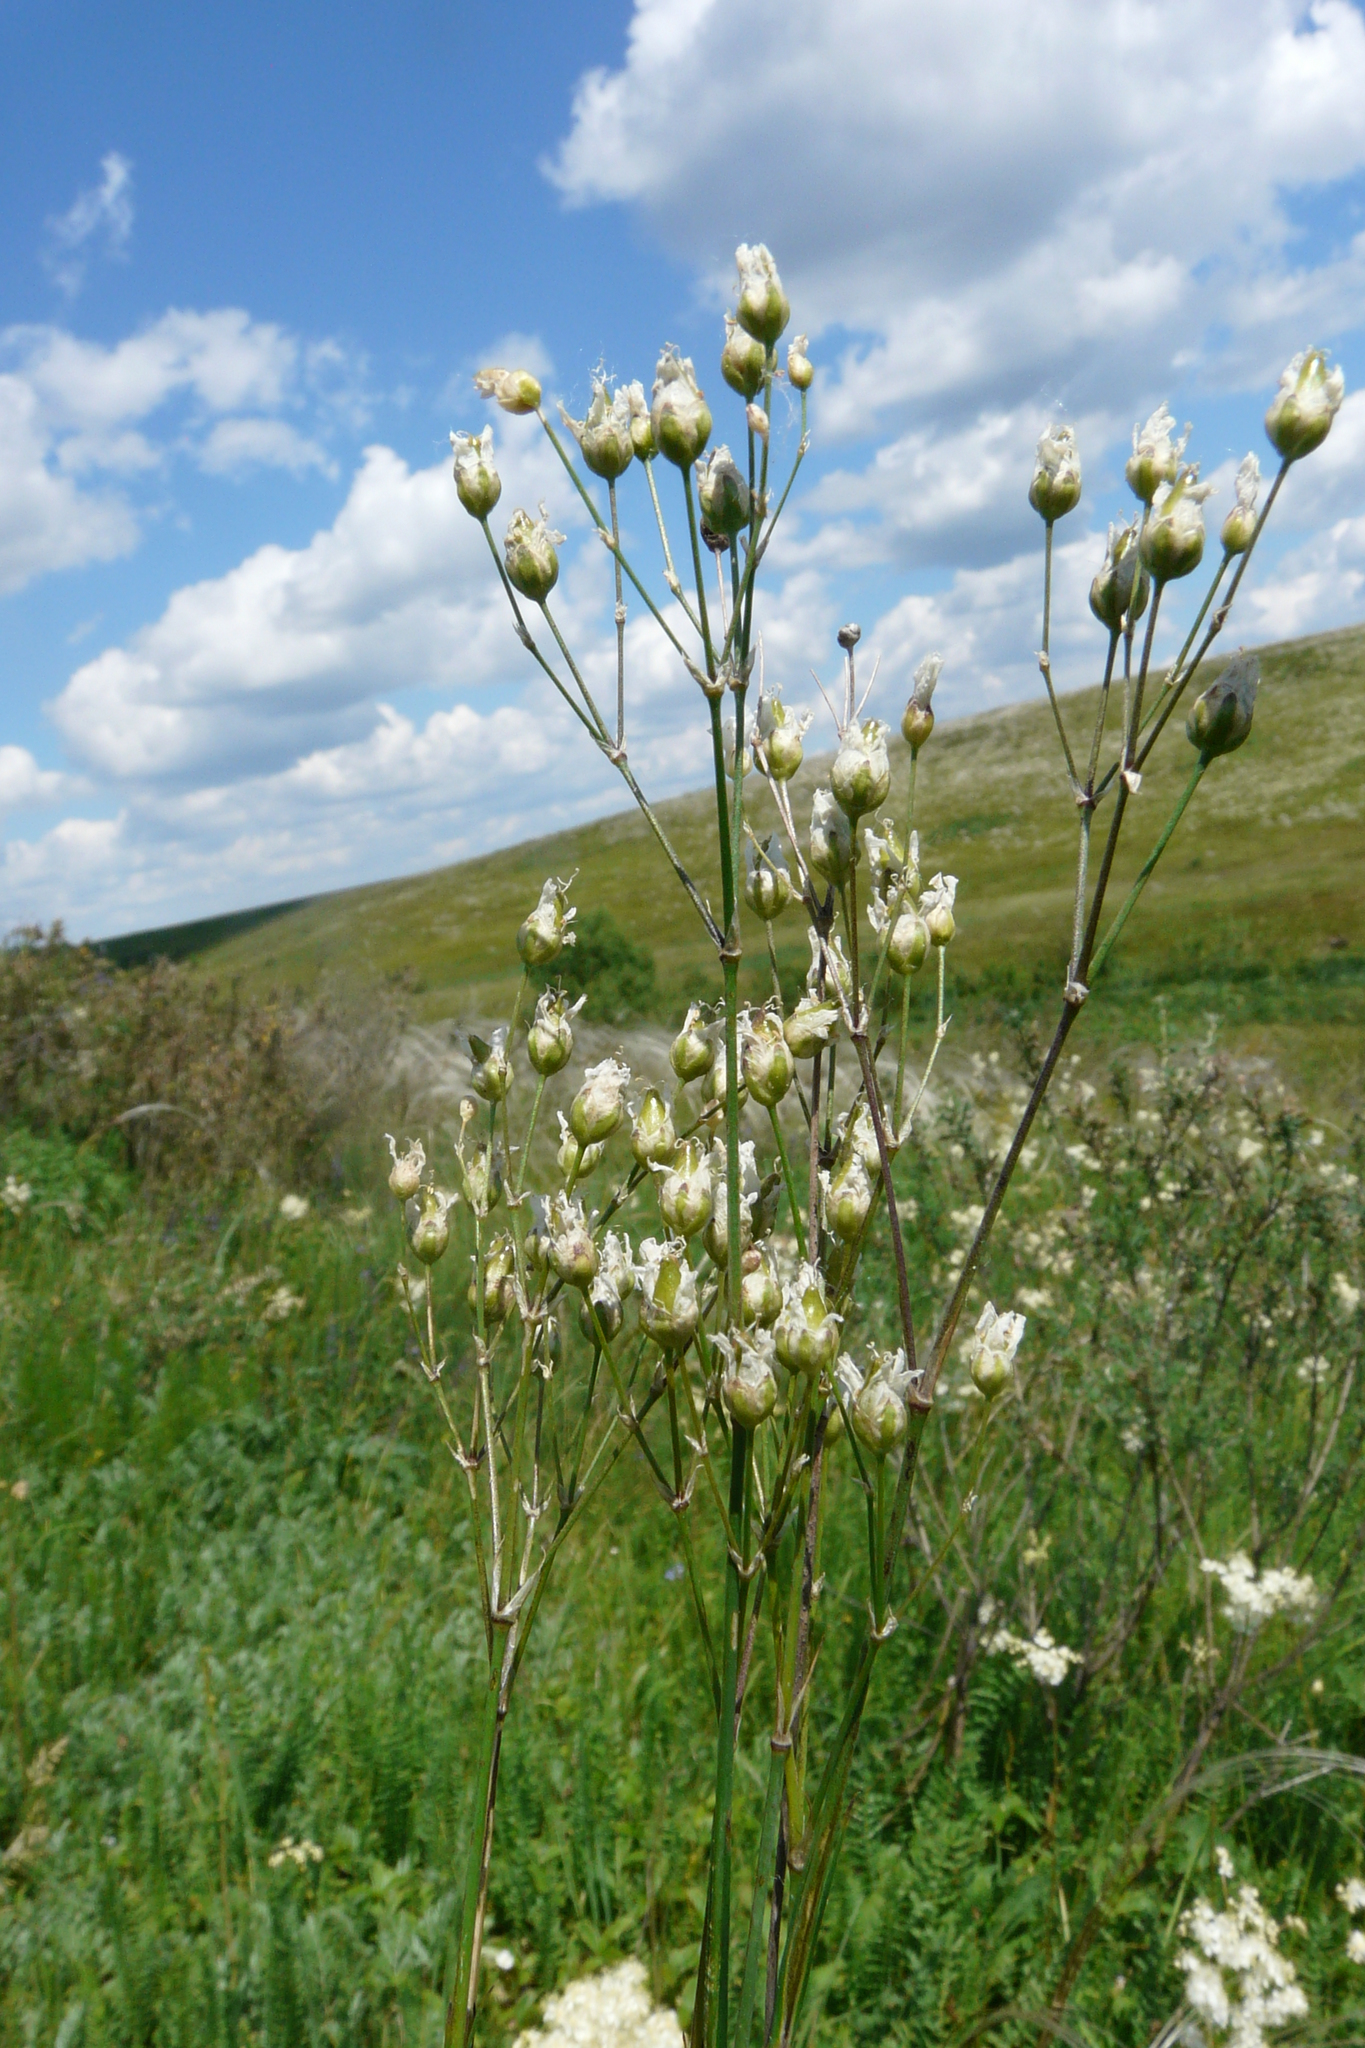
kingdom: Plantae
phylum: Tracheophyta
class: Magnoliopsida
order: Caryophyllales
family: Caryophyllaceae
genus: Eremogone
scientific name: Eremogone saxatilis
